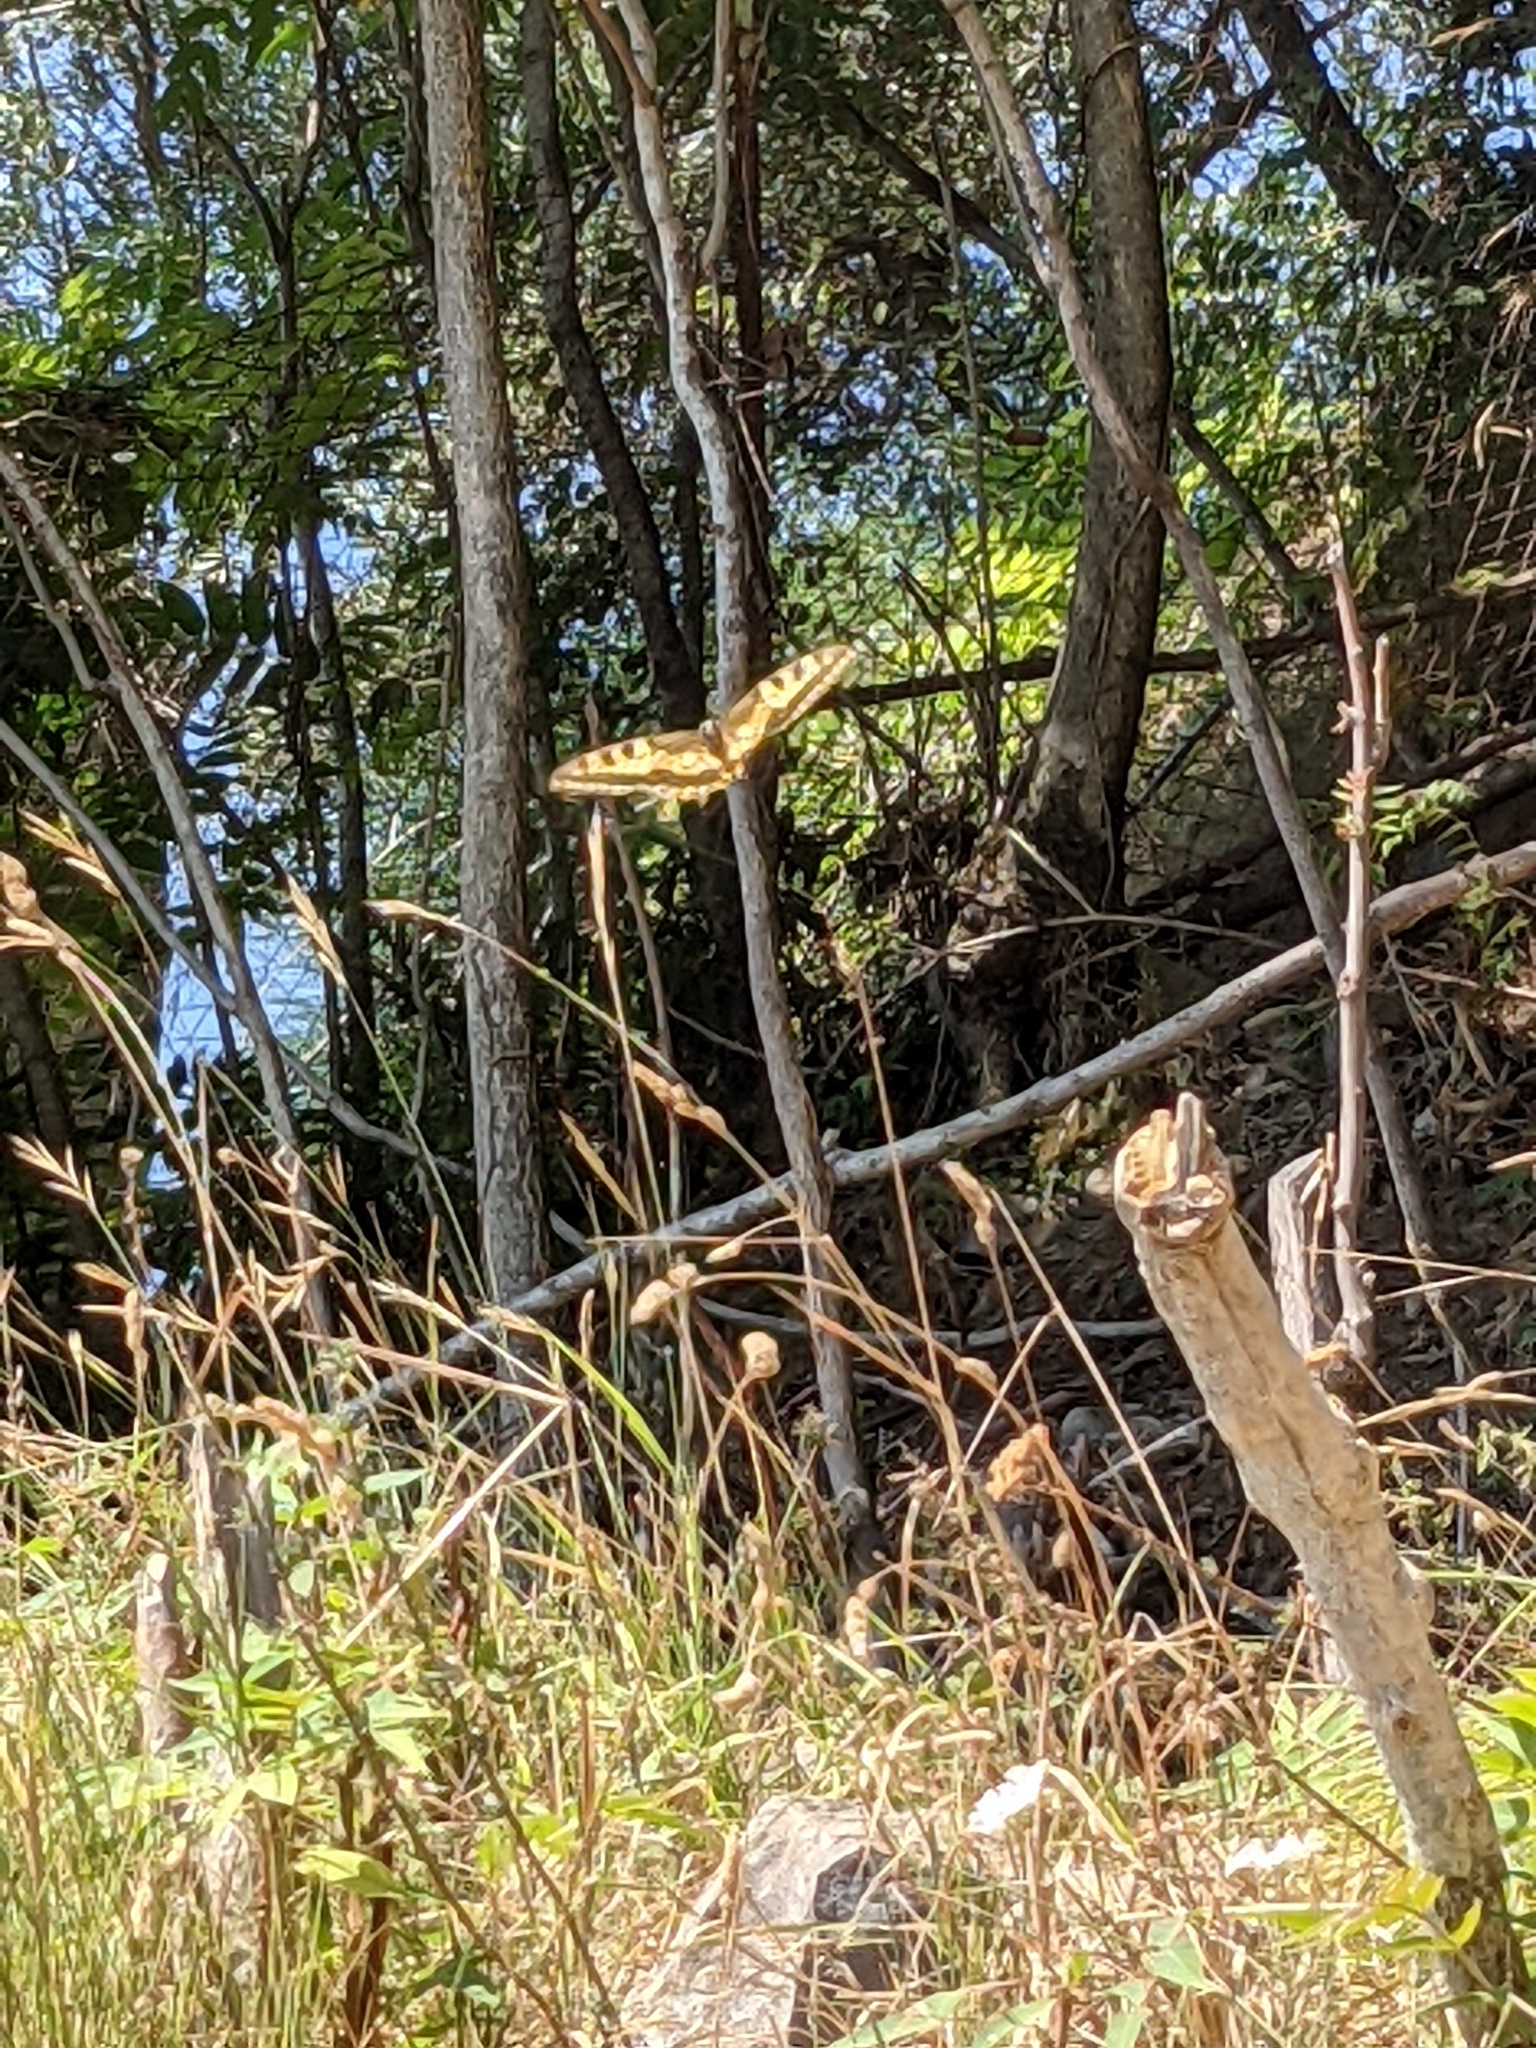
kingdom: Animalia
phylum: Arthropoda
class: Insecta
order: Lepidoptera
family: Papilionidae
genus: Papilio
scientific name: Papilio machaon
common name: Swallowtail
